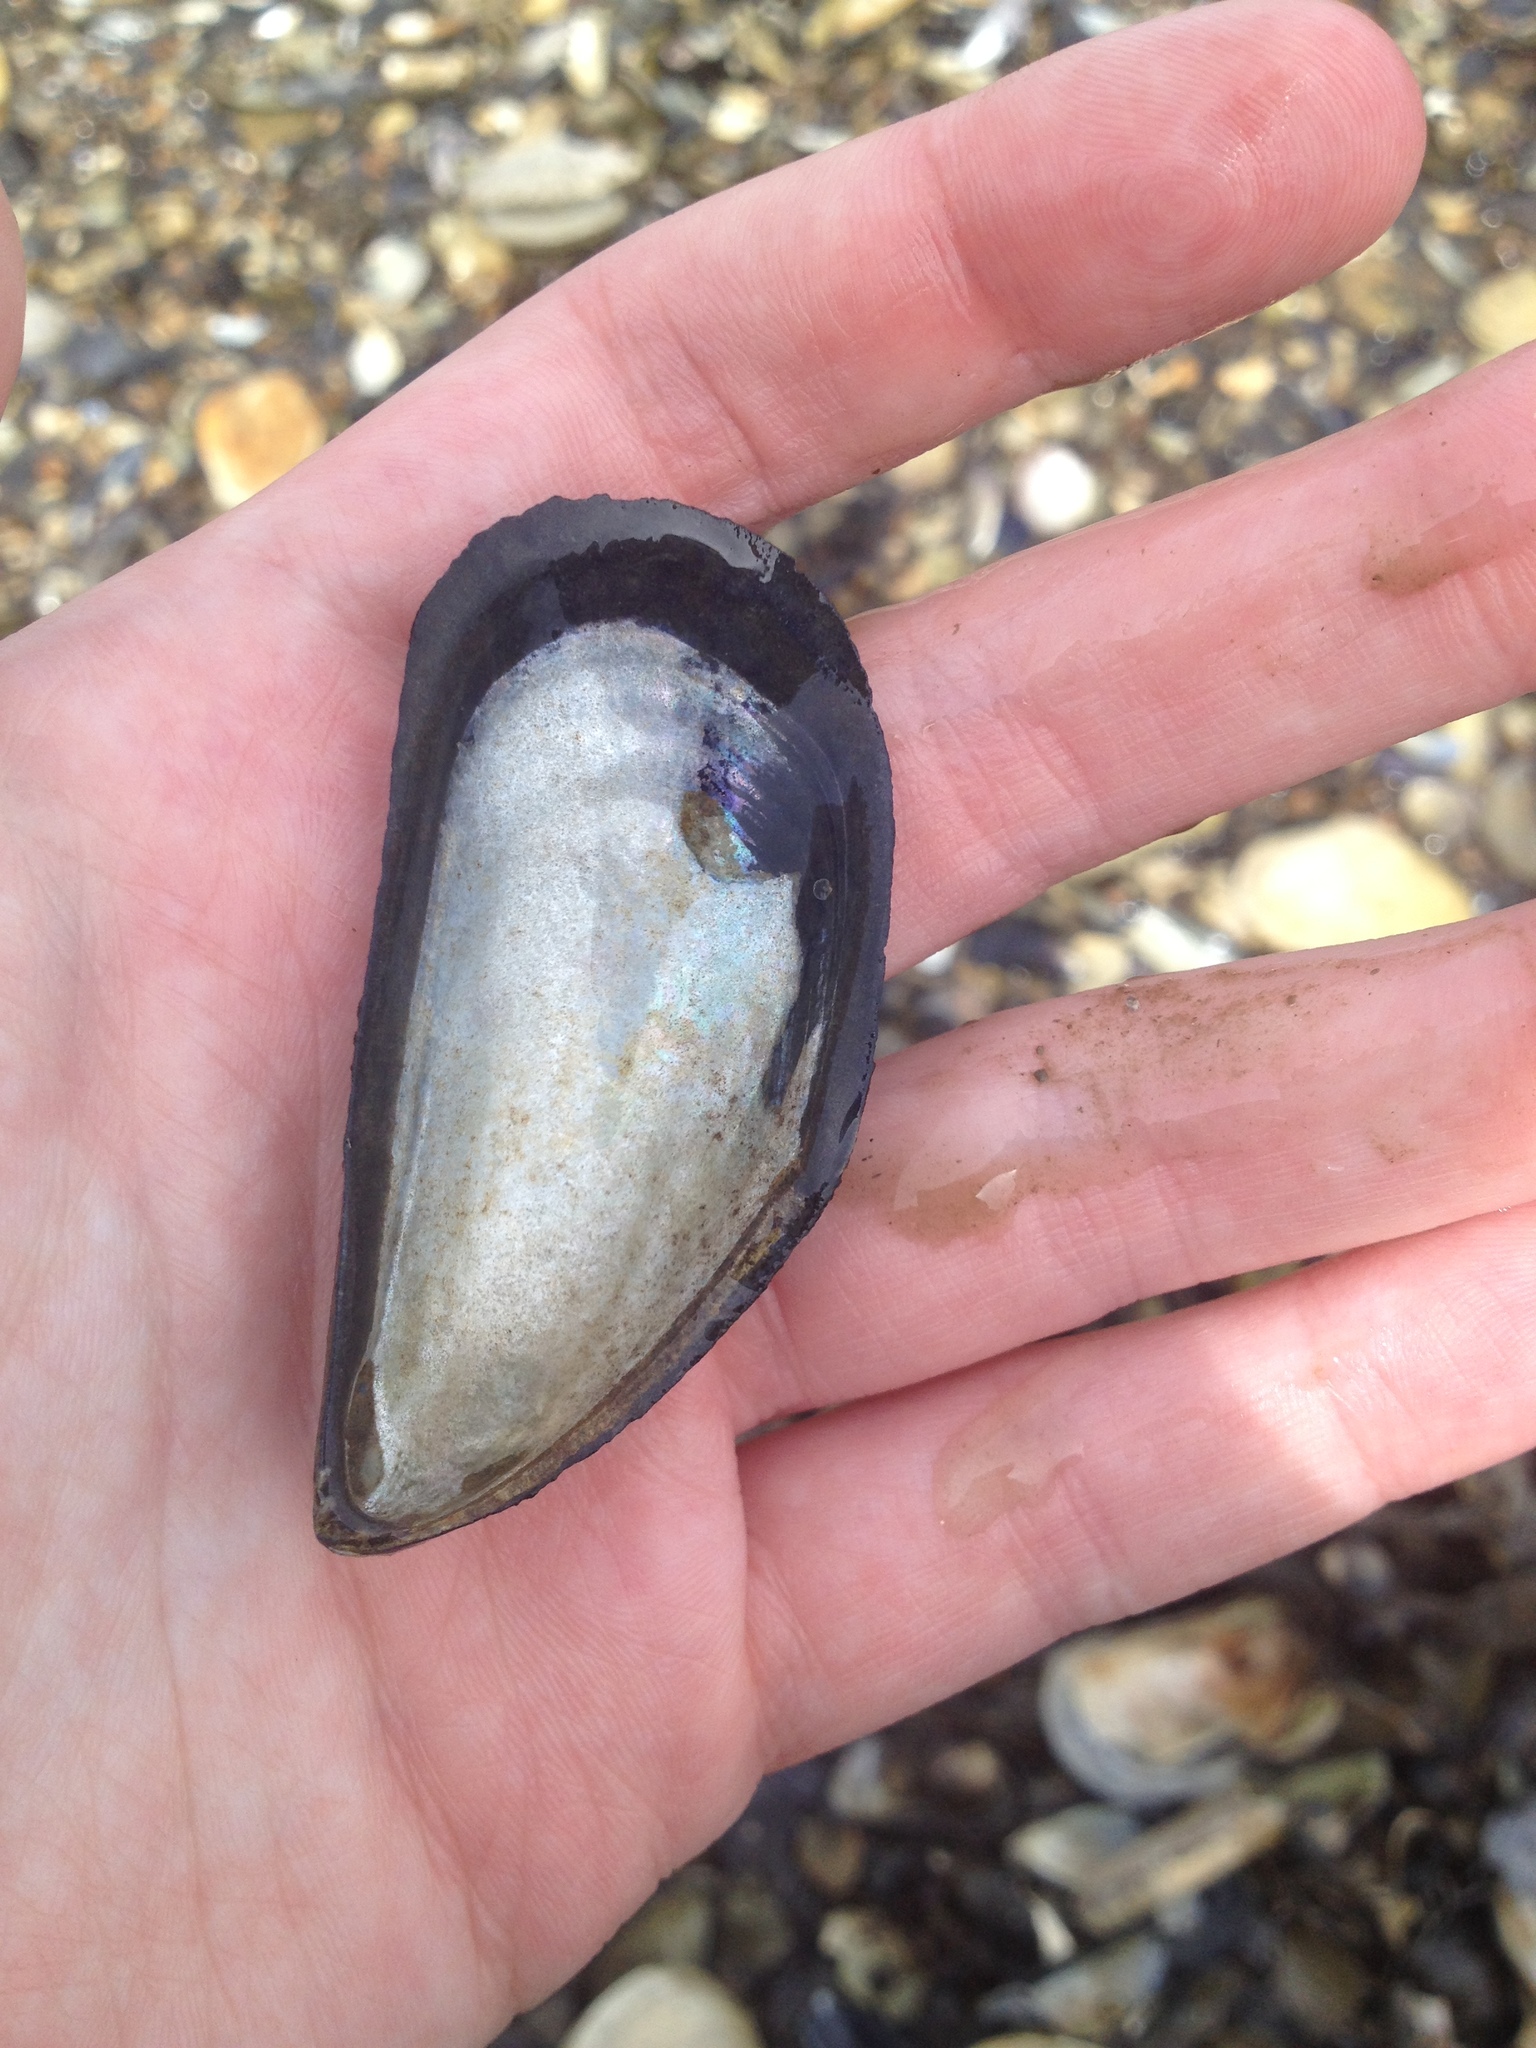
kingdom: Animalia
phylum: Mollusca
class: Bivalvia
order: Mytilida
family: Mytilidae
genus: Mytilus
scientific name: Mytilus edulis
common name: Blue mussel
